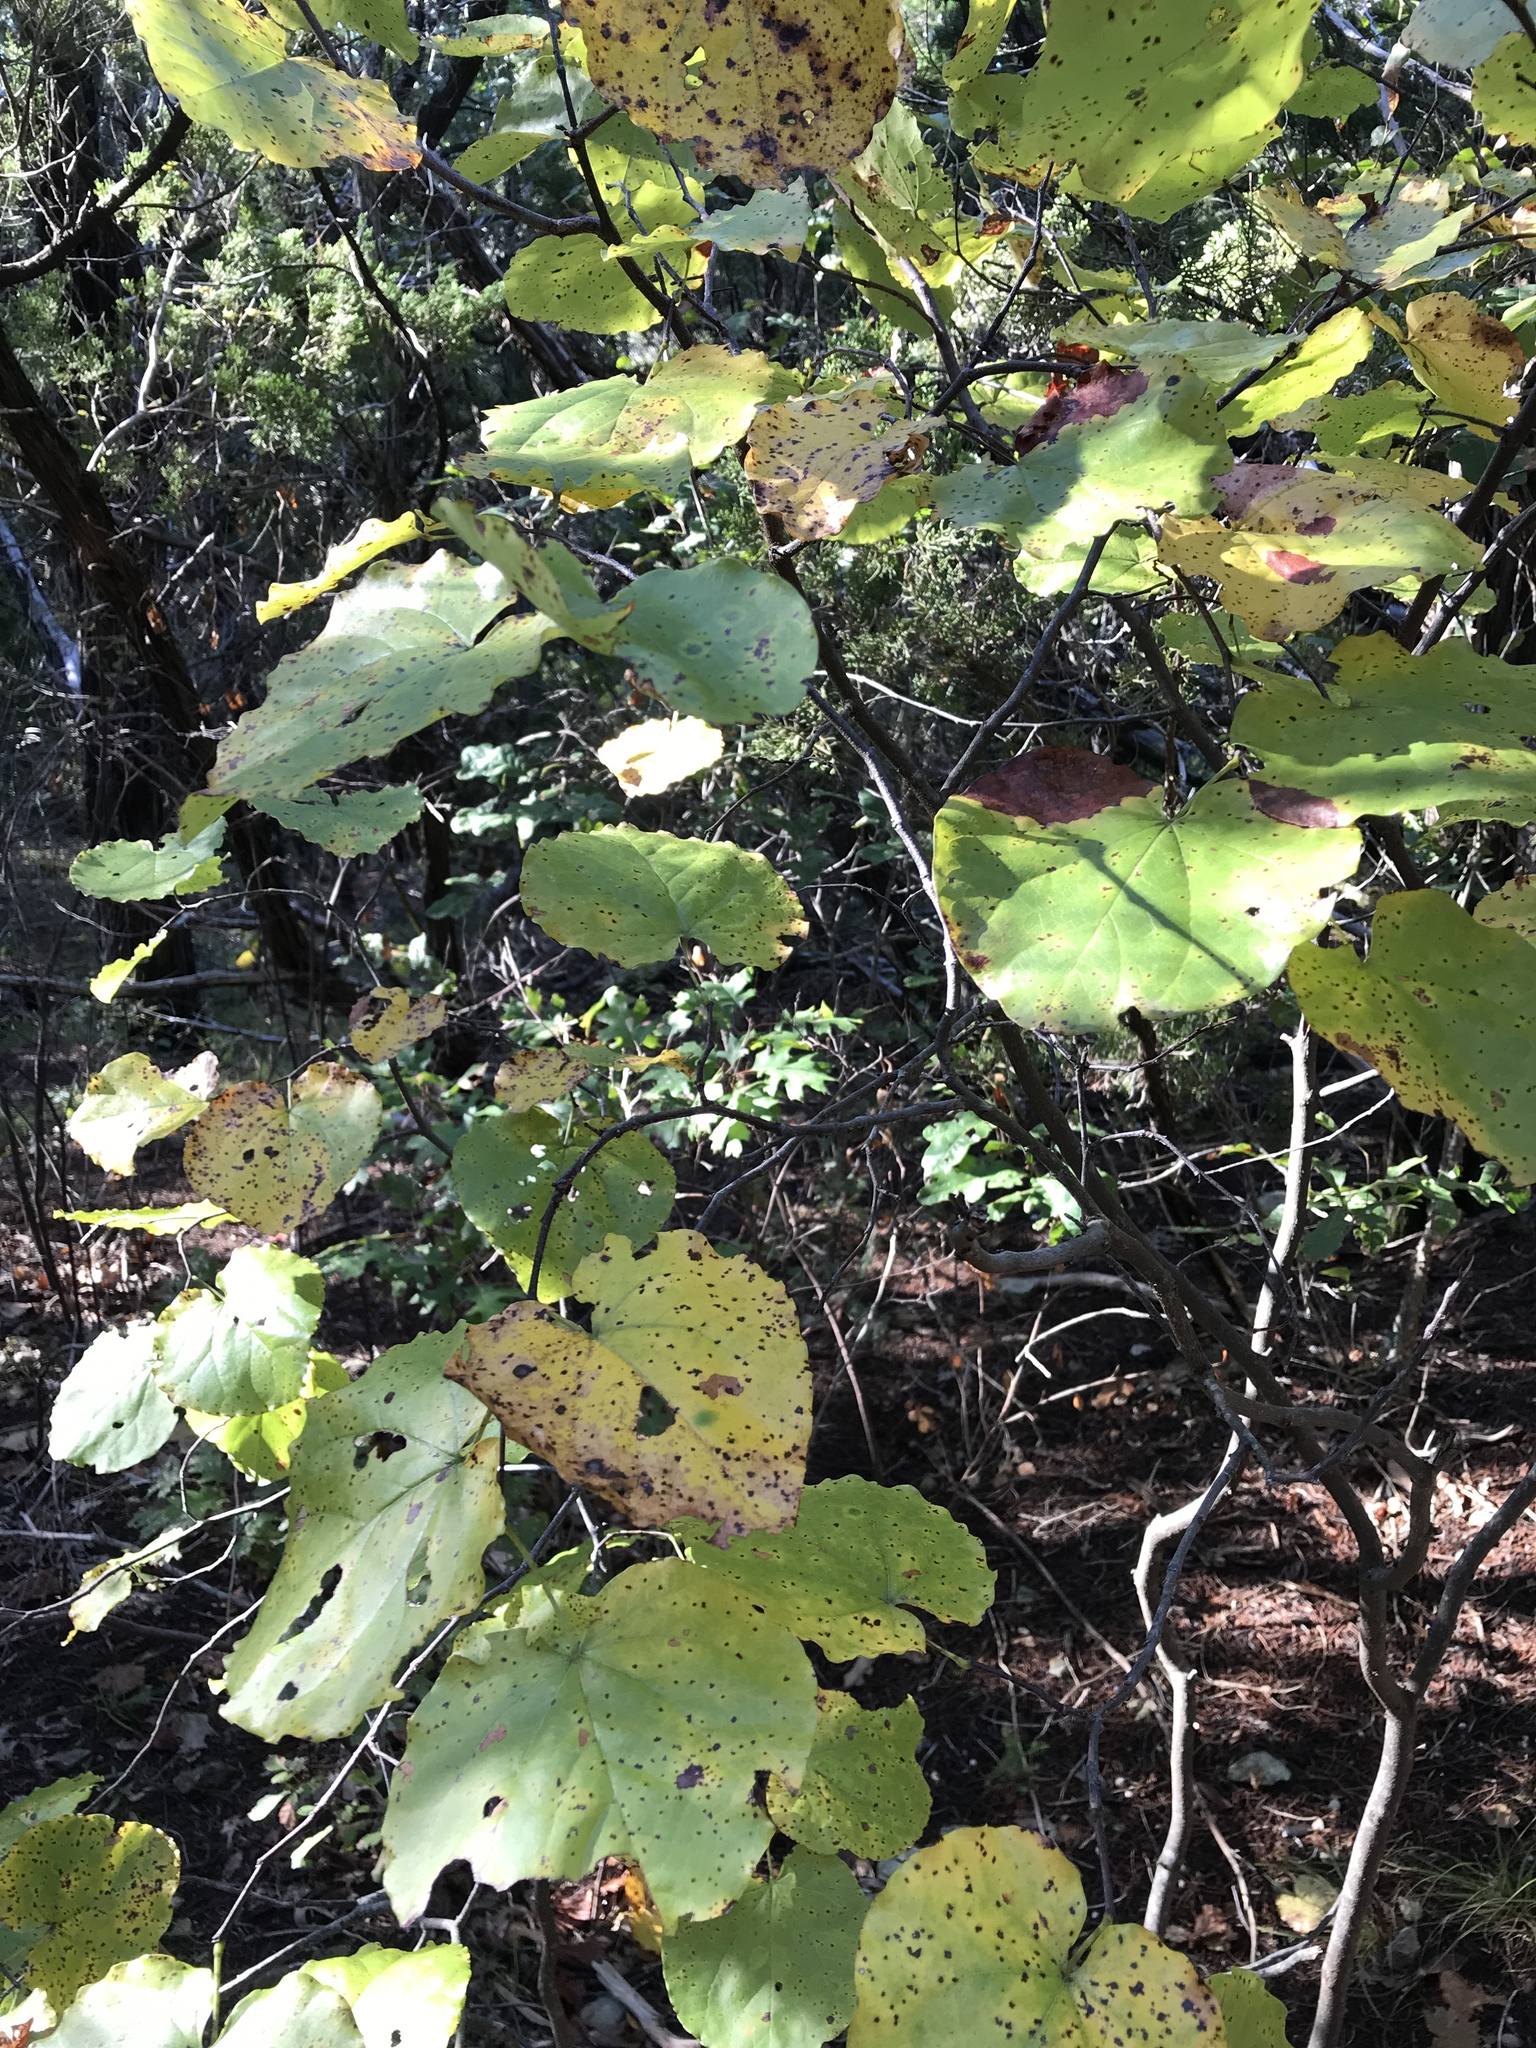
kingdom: Plantae
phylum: Tracheophyta
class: Magnoliopsida
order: Fabales
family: Fabaceae
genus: Cercis
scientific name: Cercis canadensis
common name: Eastern redbud
